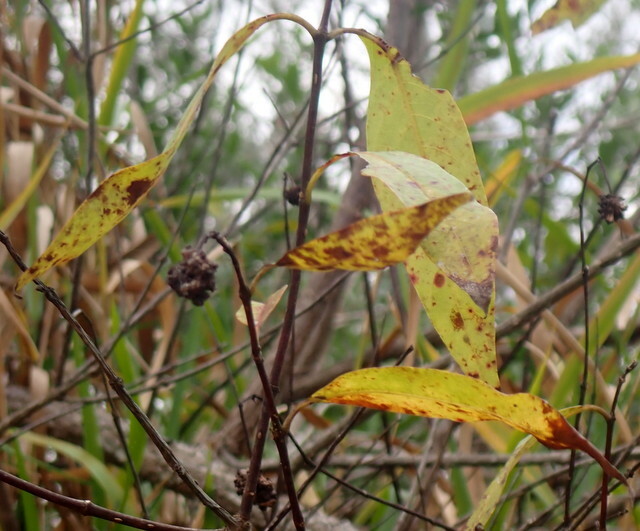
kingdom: Plantae
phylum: Tracheophyta
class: Magnoliopsida
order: Gentianales
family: Rubiaceae
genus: Cephalanthus
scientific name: Cephalanthus occidentalis
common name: Button-willow
